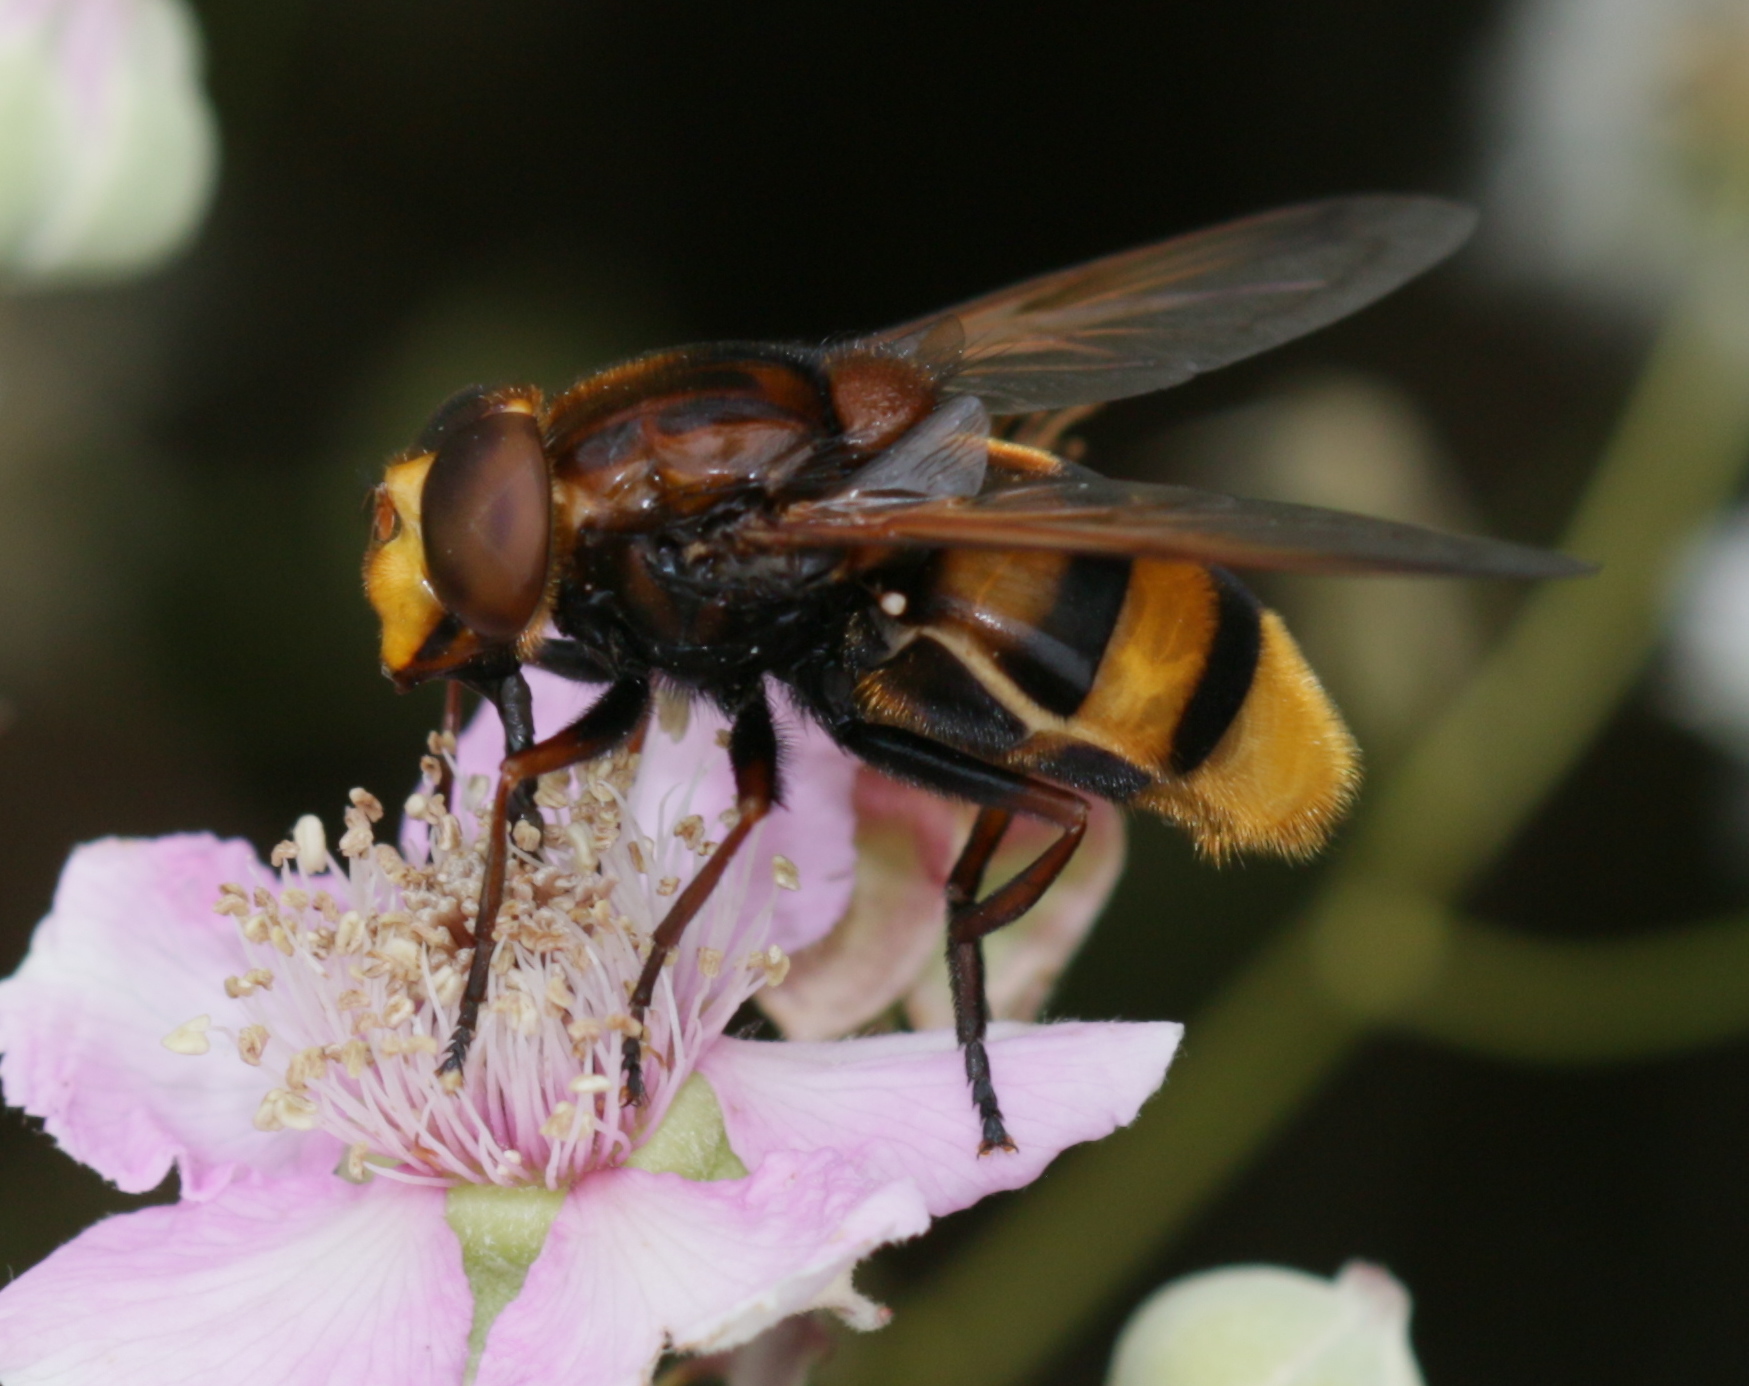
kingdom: Animalia
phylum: Arthropoda
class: Insecta
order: Diptera
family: Syrphidae
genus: Volucella
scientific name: Volucella zonaria
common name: Hornet hoverfly
